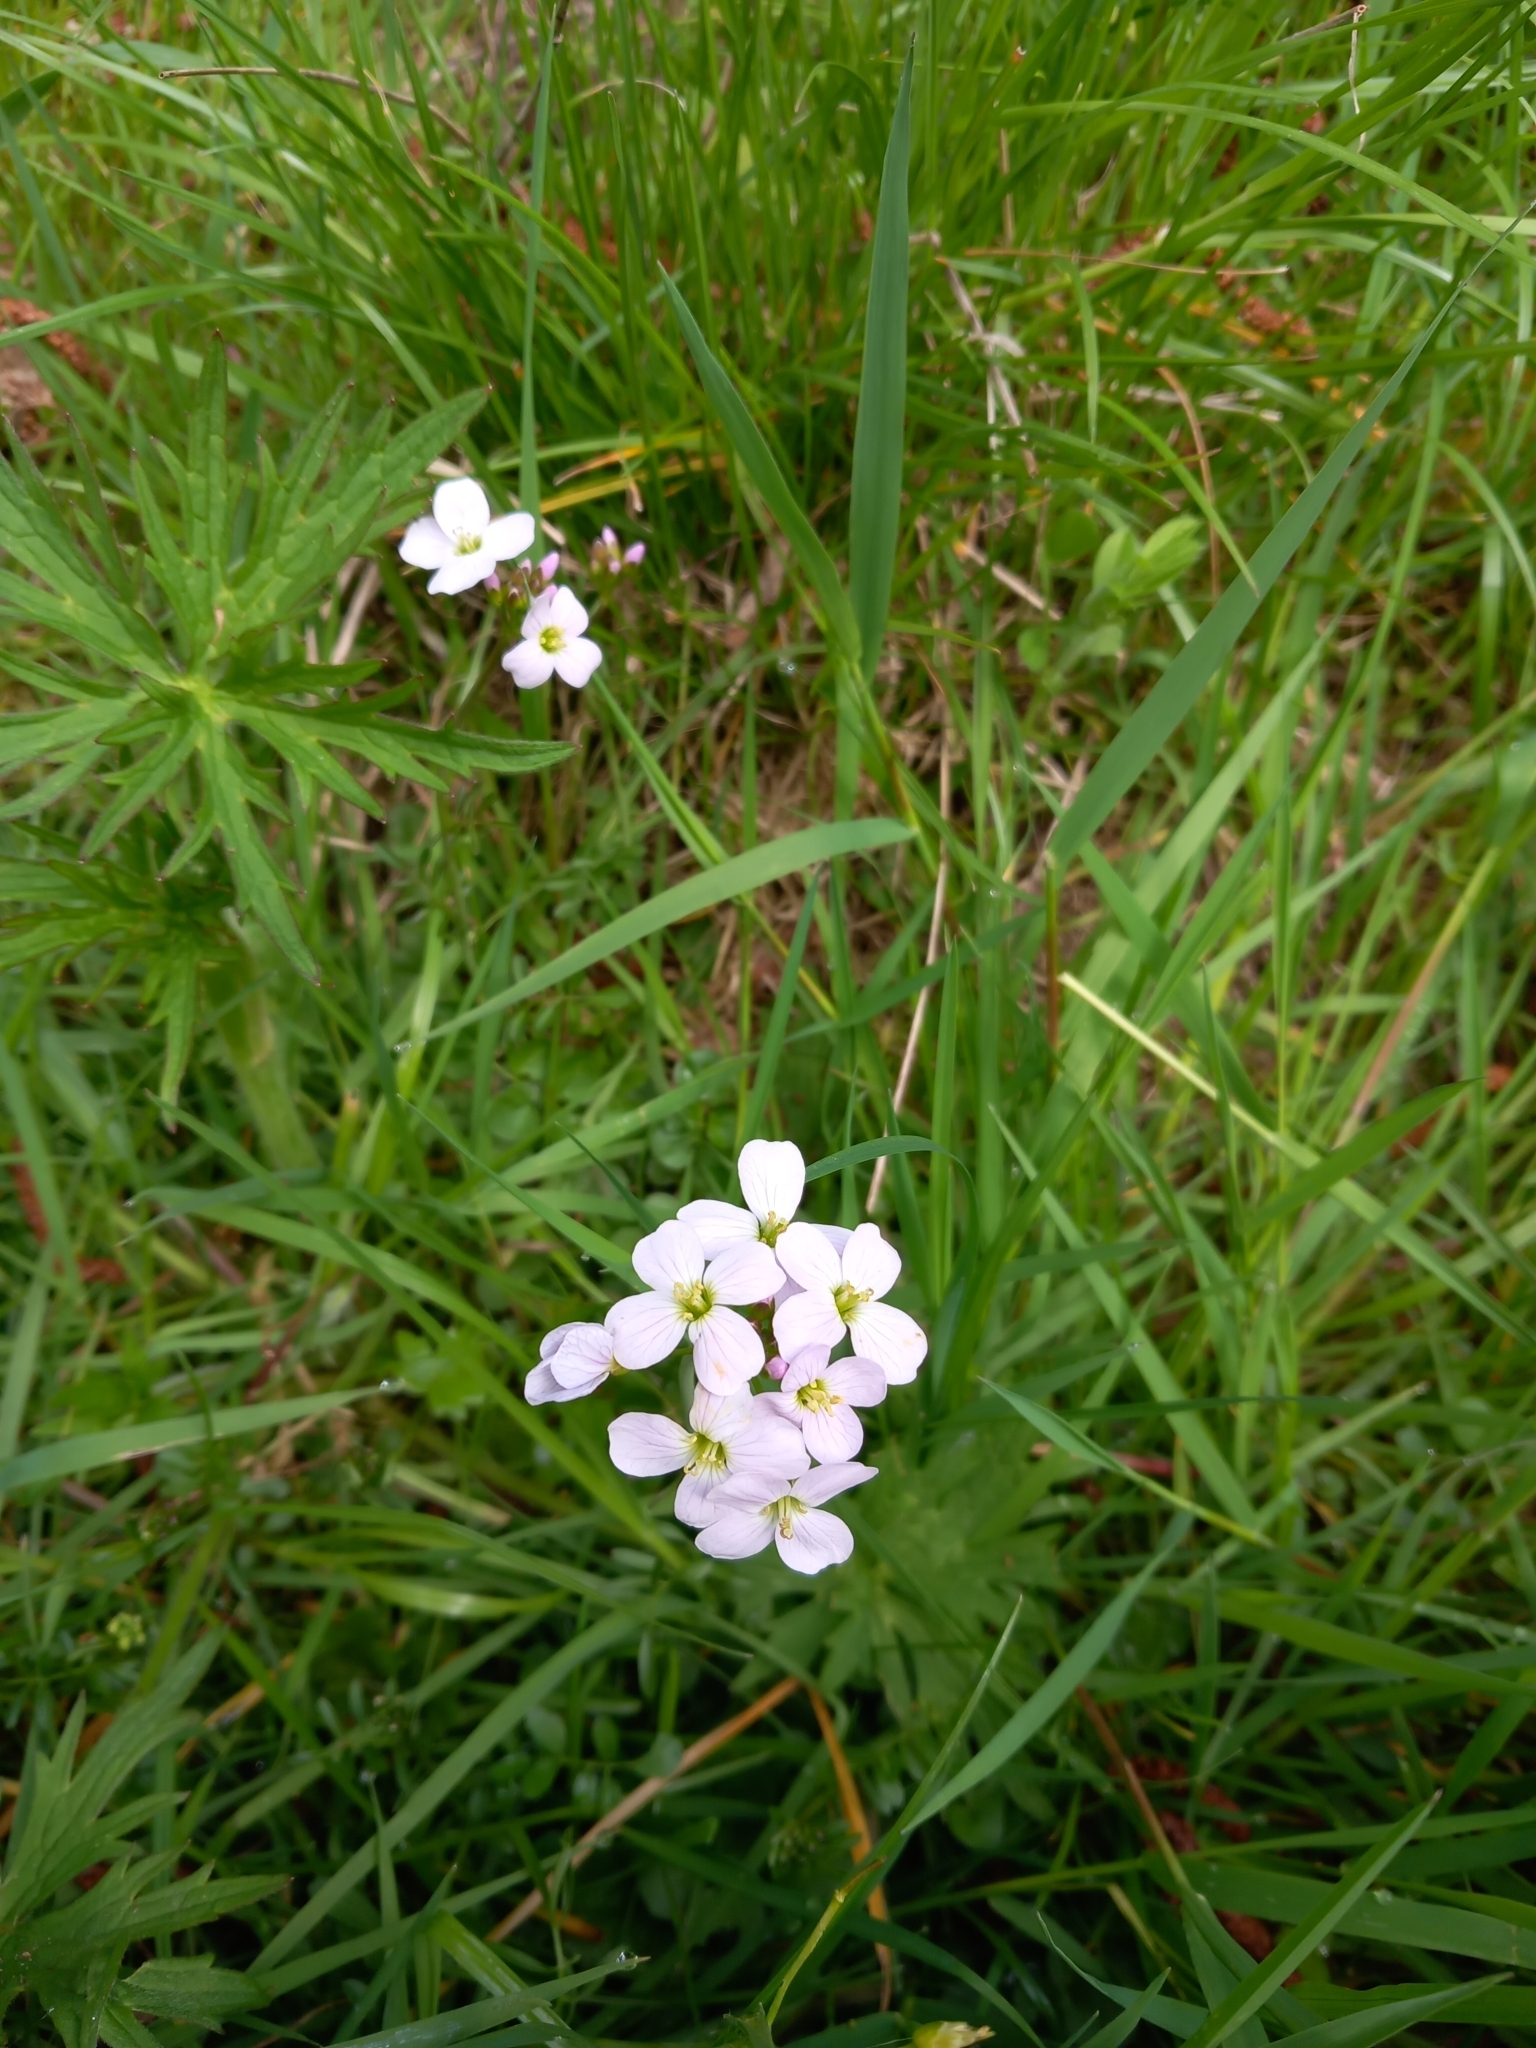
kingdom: Plantae
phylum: Tracheophyta
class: Magnoliopsida
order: Brassicales
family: Brassicaceae
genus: Cardamine
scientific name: Cardamine pratensis
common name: Cuckoo flower
